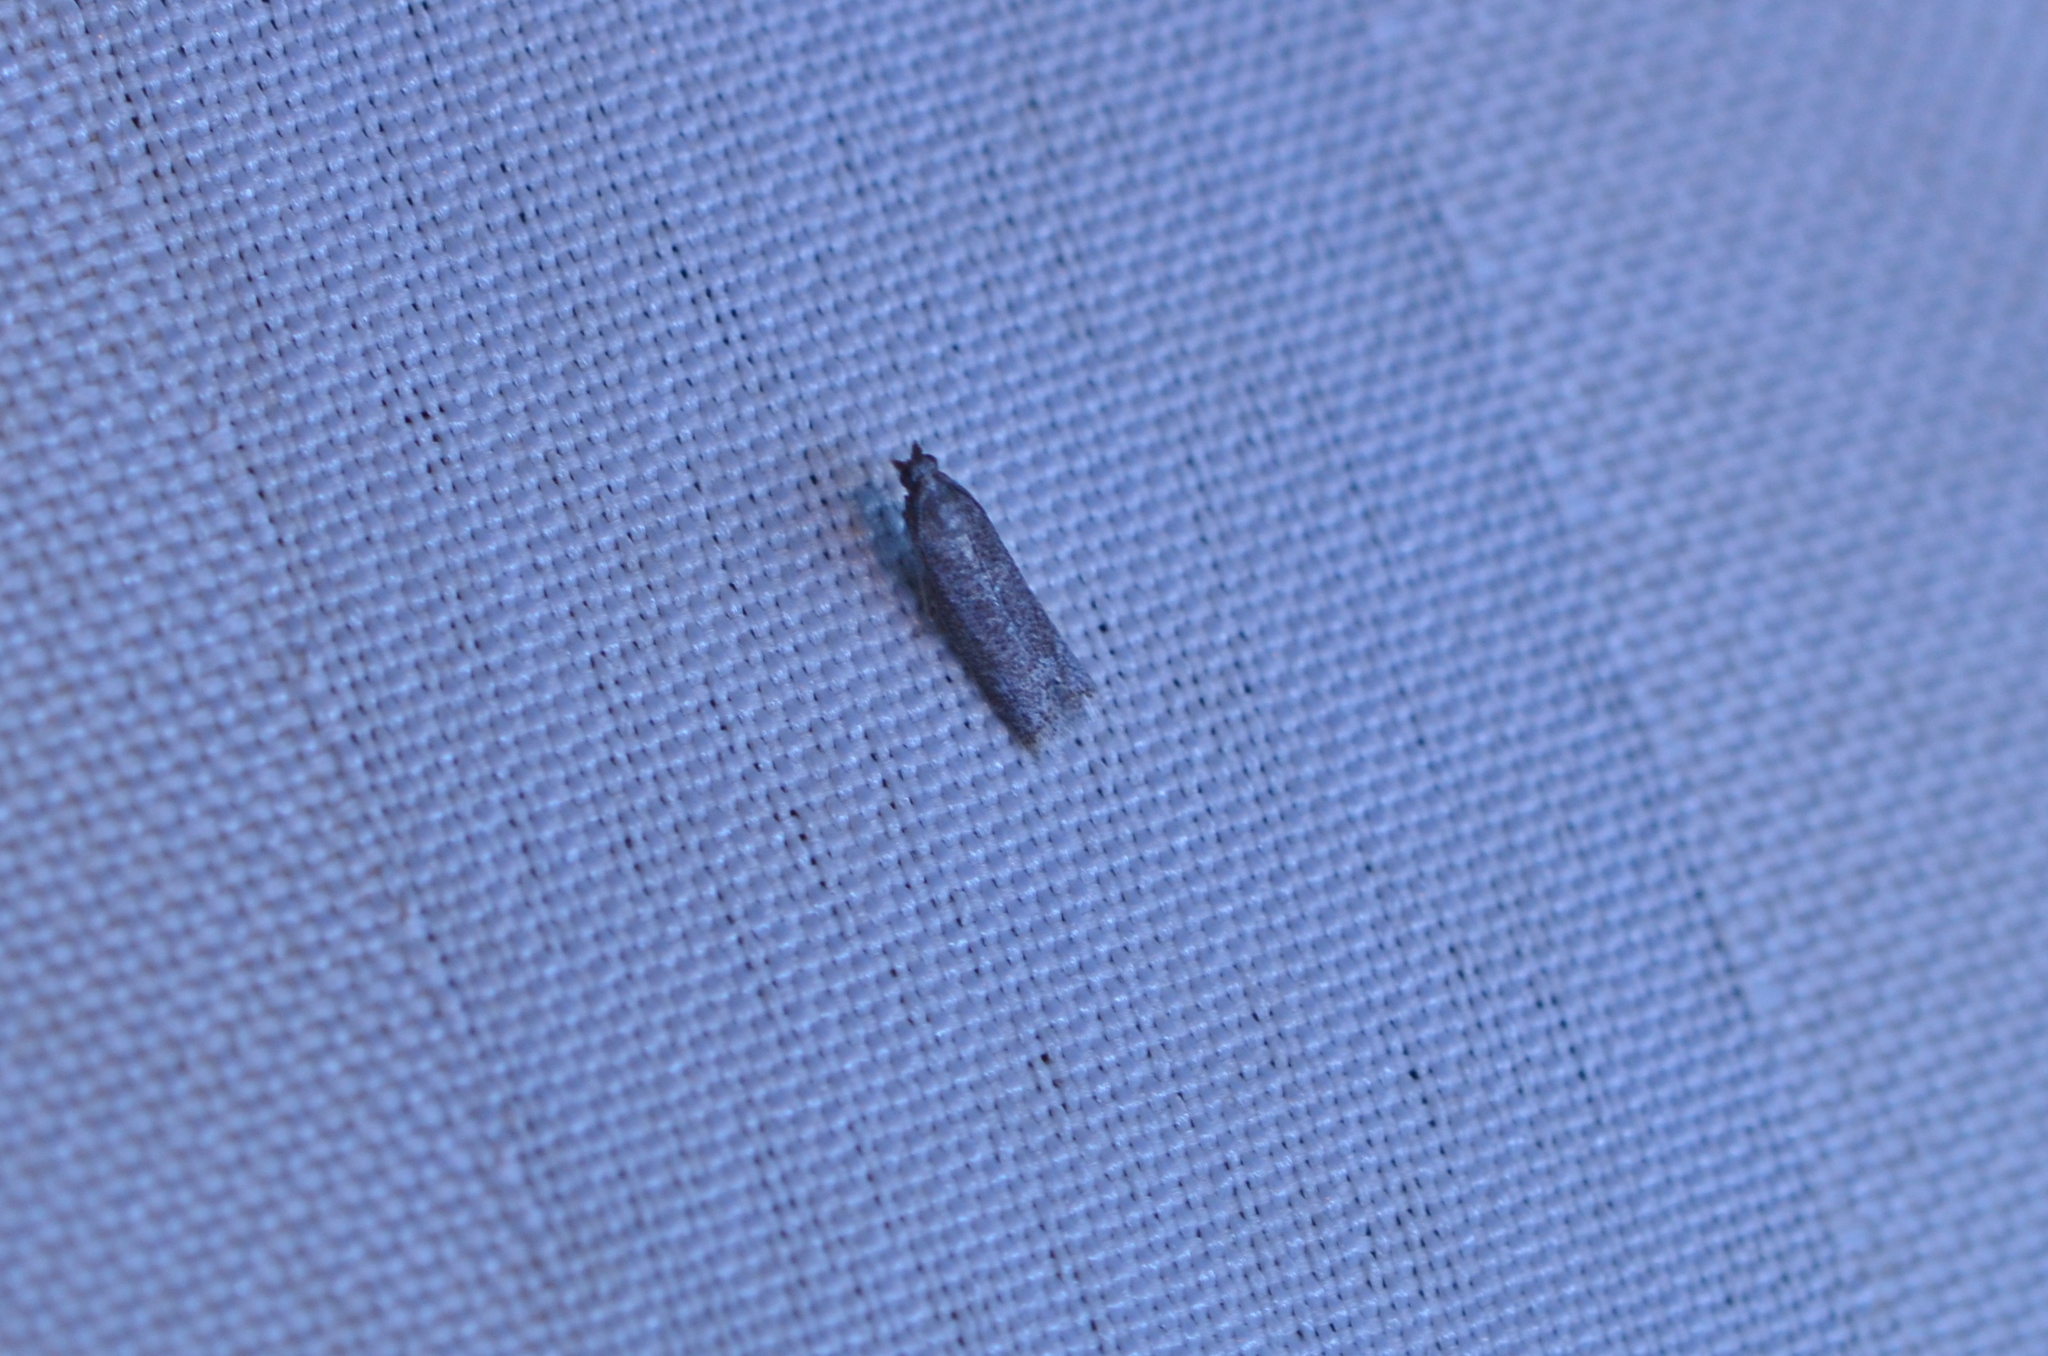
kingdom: Animalia
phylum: Arthropoda
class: Insecta
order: Lepidoptera
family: Pyralidae
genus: Cabnia
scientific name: Cabnia myronella
